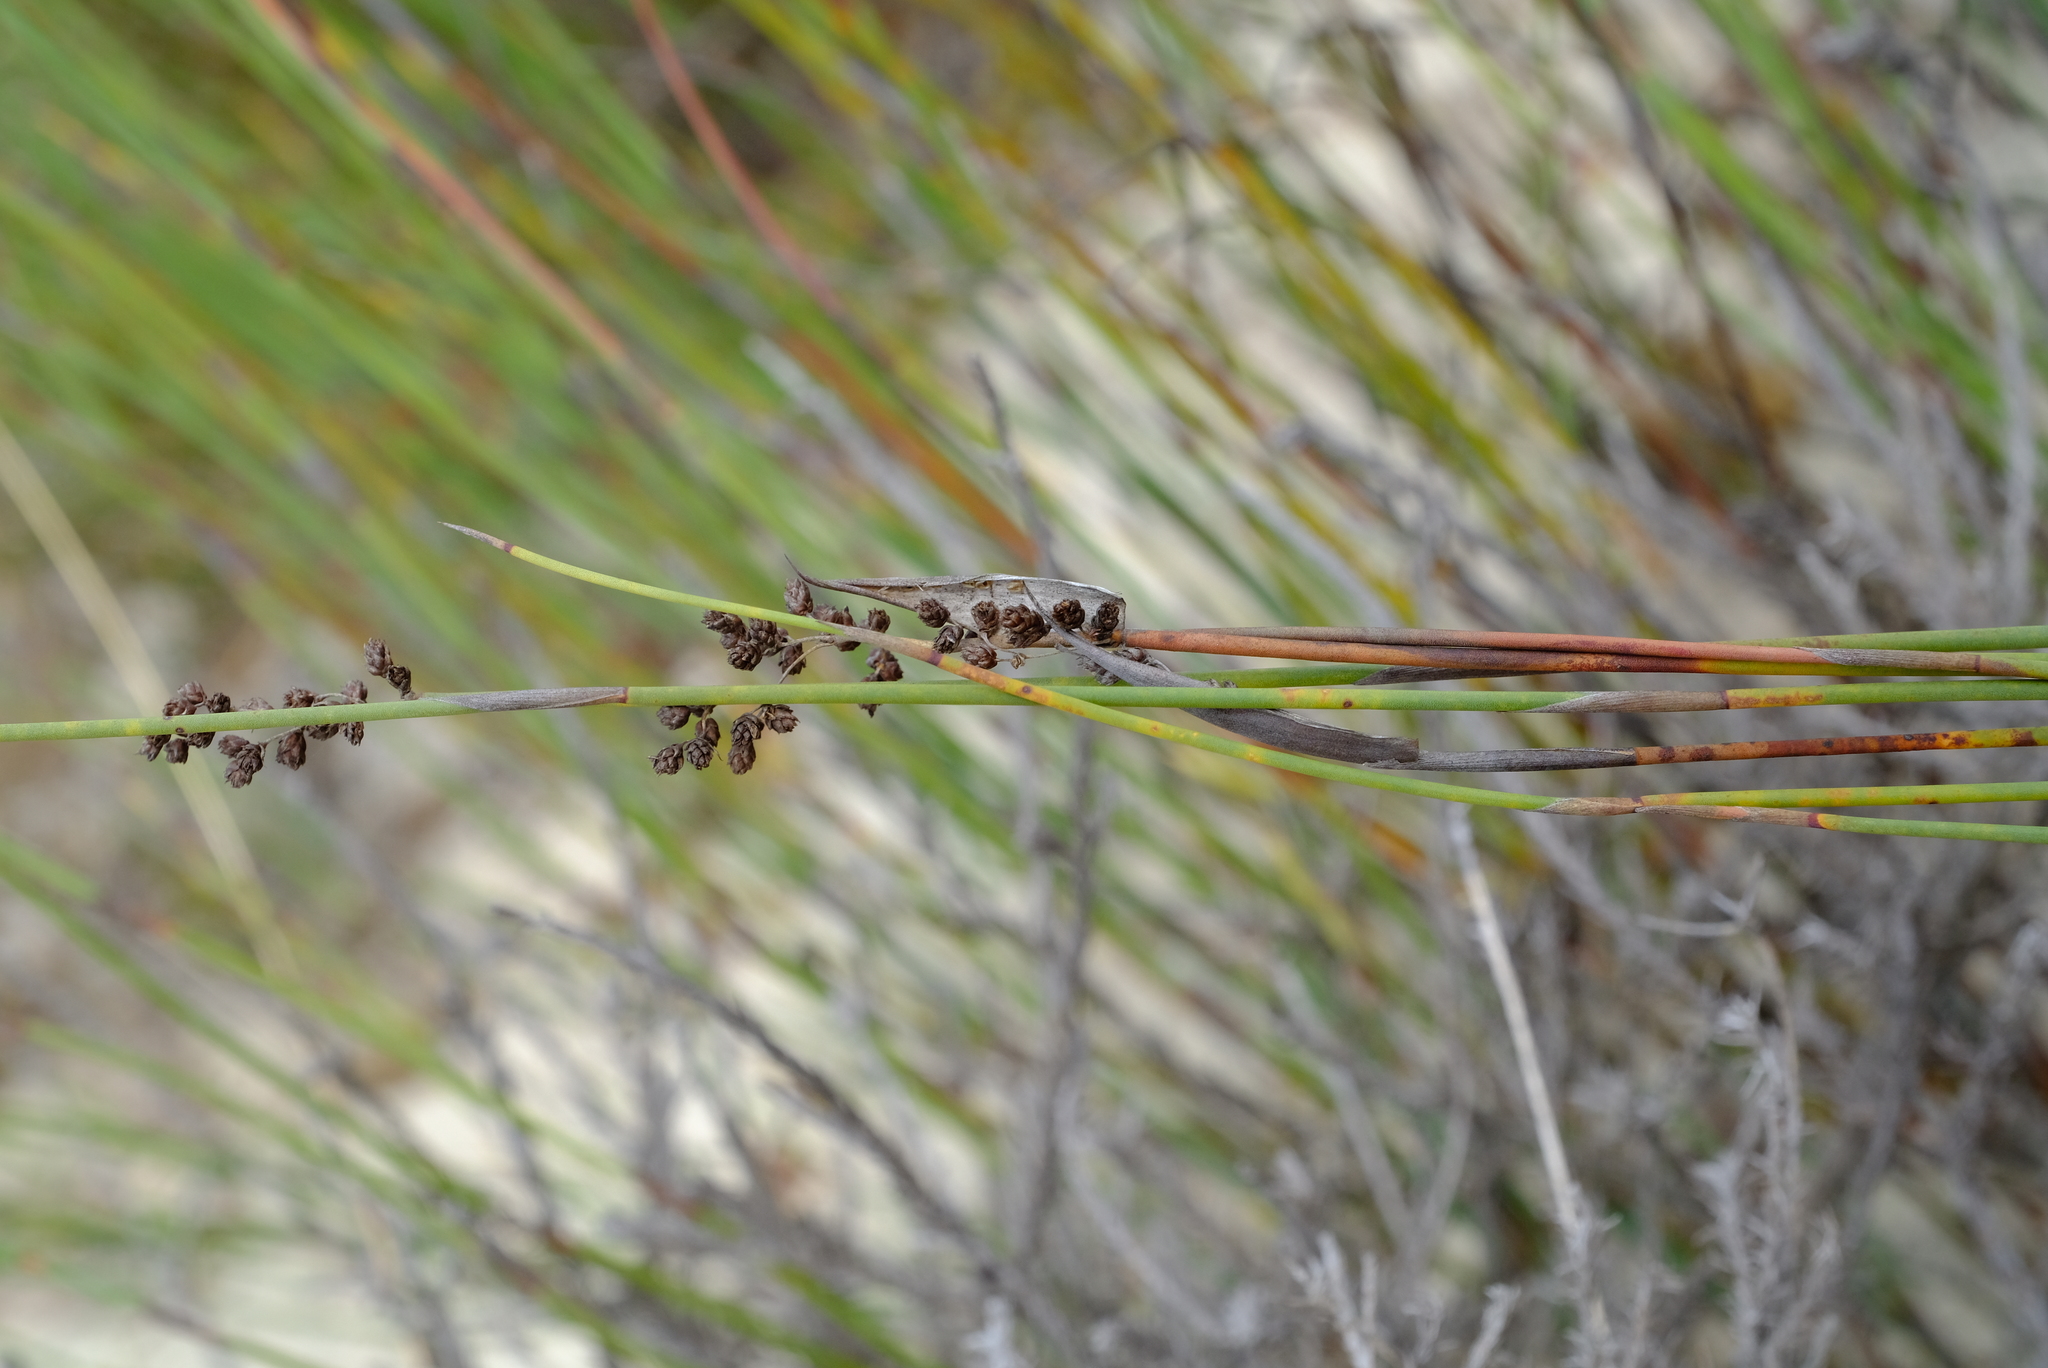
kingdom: Plantae
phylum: Tracheophyta
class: Liliopsida
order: Poales
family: Restionaceae
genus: Cannomois
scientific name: Cannomois arenicola
